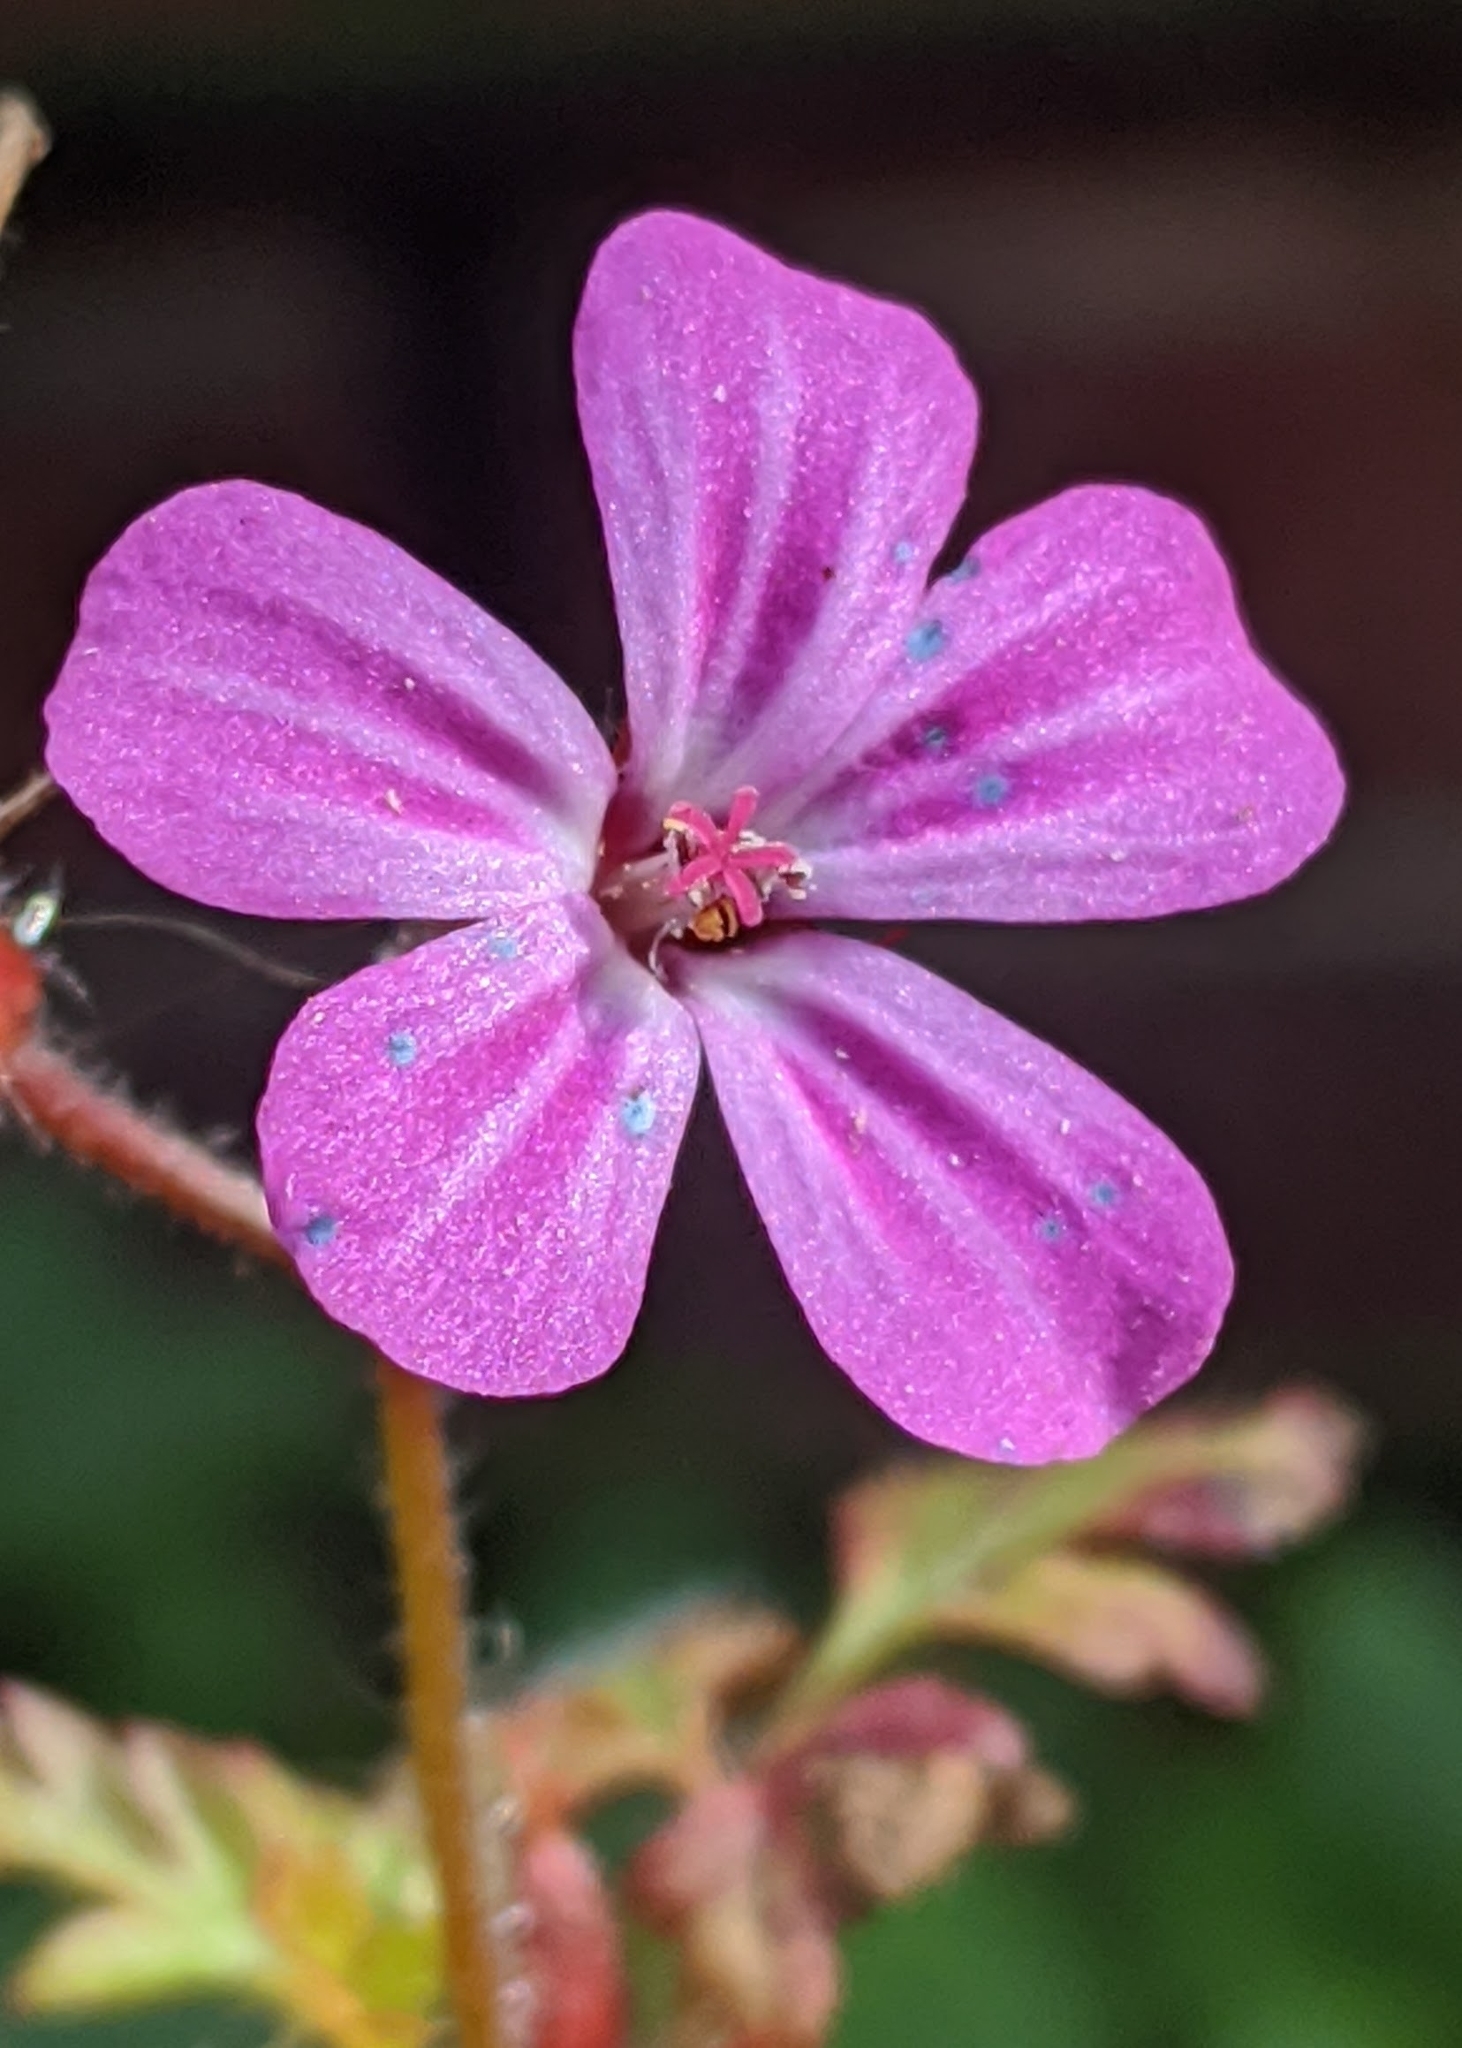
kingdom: Plantae
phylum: Tracheophyta
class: Magnoliopsida
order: Geraniales
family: Geraniaceae
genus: Geranium
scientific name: Geranium robertianum
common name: Herb-robert
